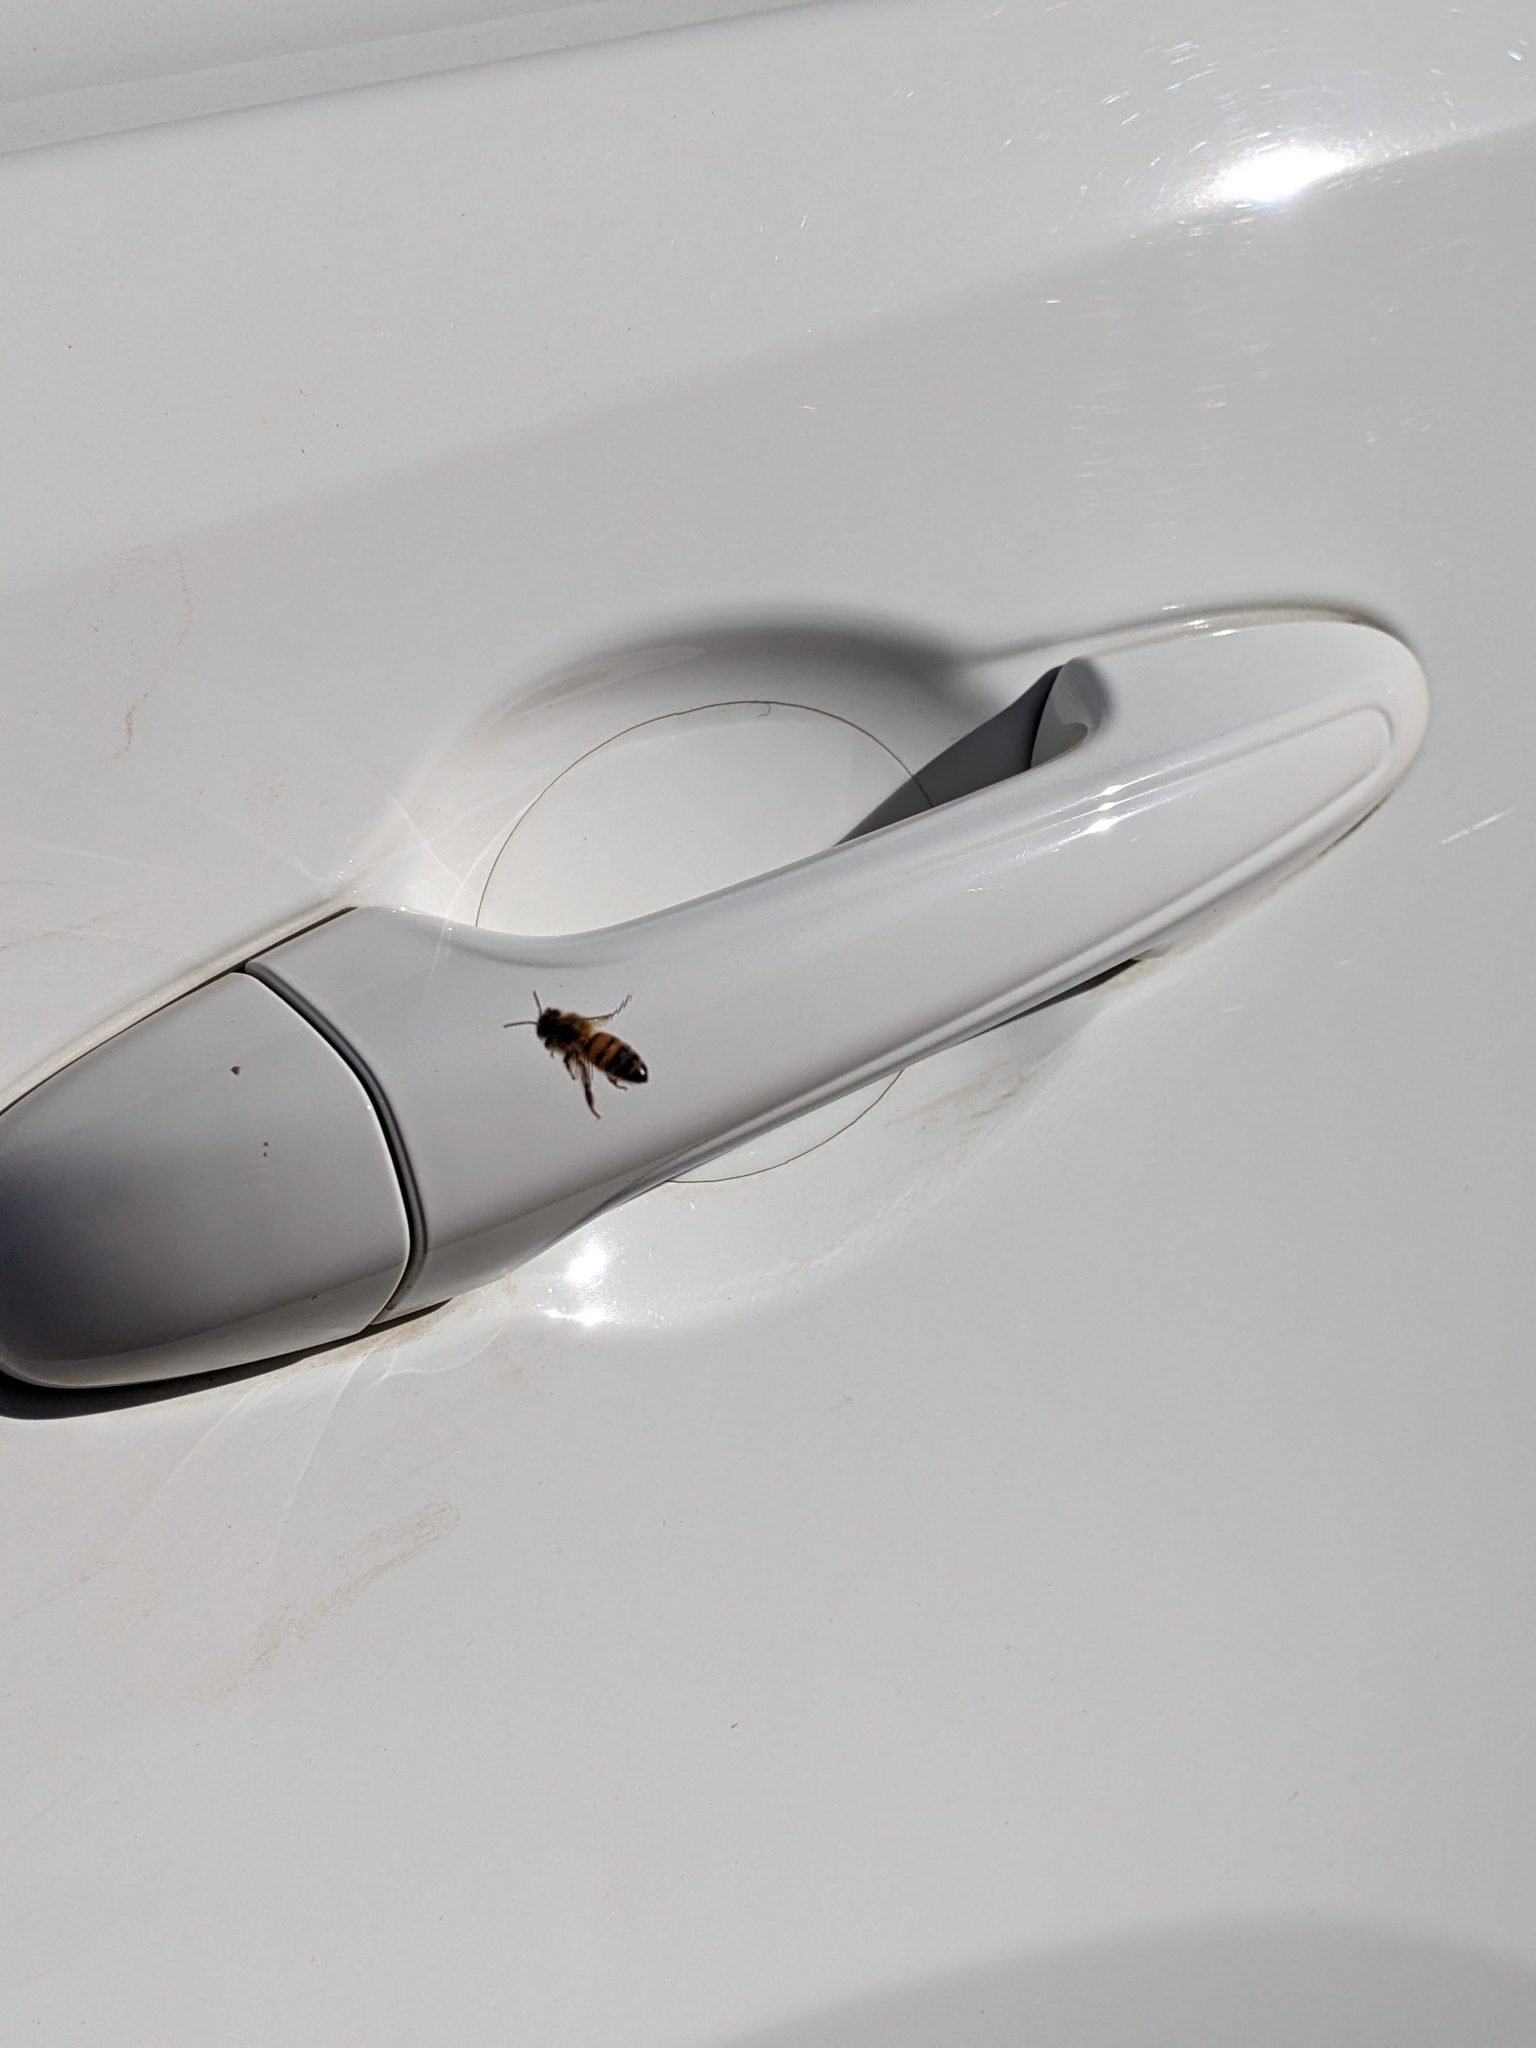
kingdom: Animalia
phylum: Arthropoda
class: Insecta
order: Hymenoptera
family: Apidae
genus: Apis
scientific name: Apis mellifera
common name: Honey bee
